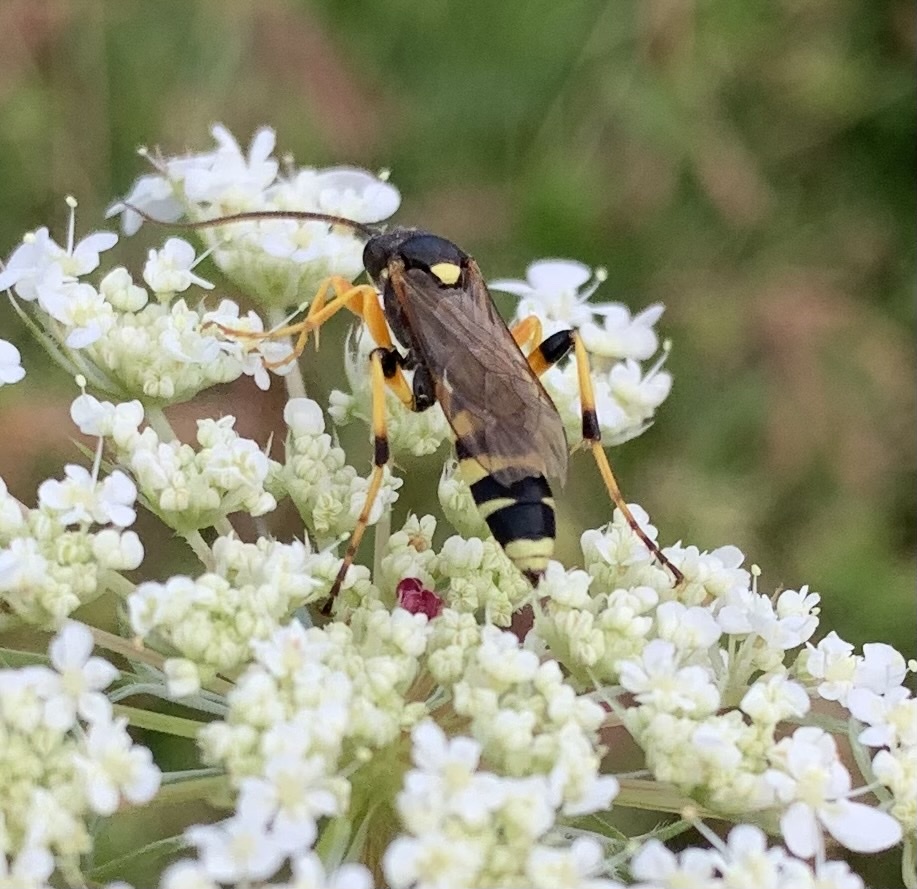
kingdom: Animalia
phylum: Arthropoda
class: Insecta
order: Hymenoptera
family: Ichneumonidae
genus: Ichneumon
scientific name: Ichneumon sarcitorius
